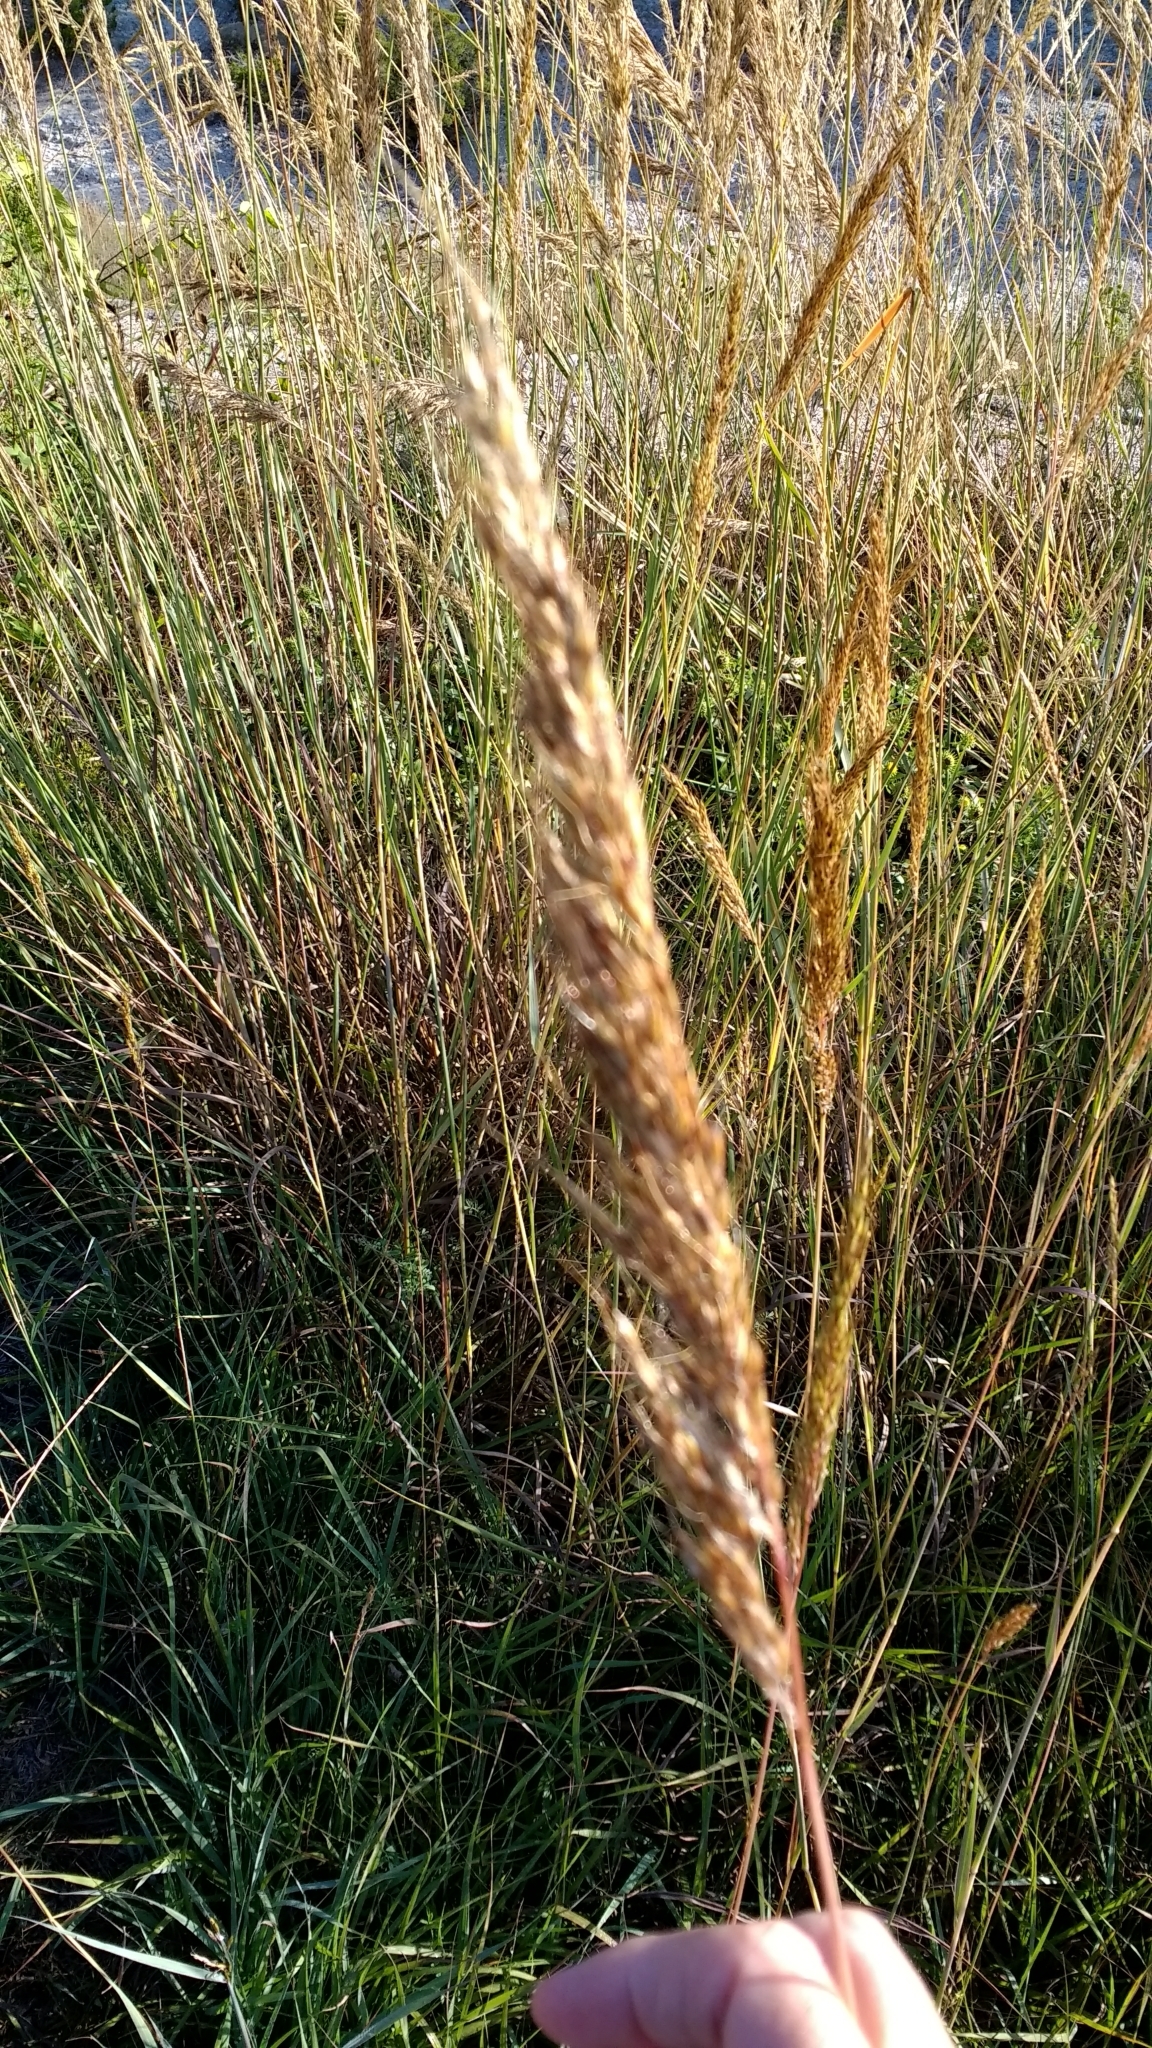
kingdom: Plantae
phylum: Tracheophyta
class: Liliopsida
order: Poales
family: Poaceae
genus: Sorghastrum
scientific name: Sorghastrum nutans
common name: Indian grass
